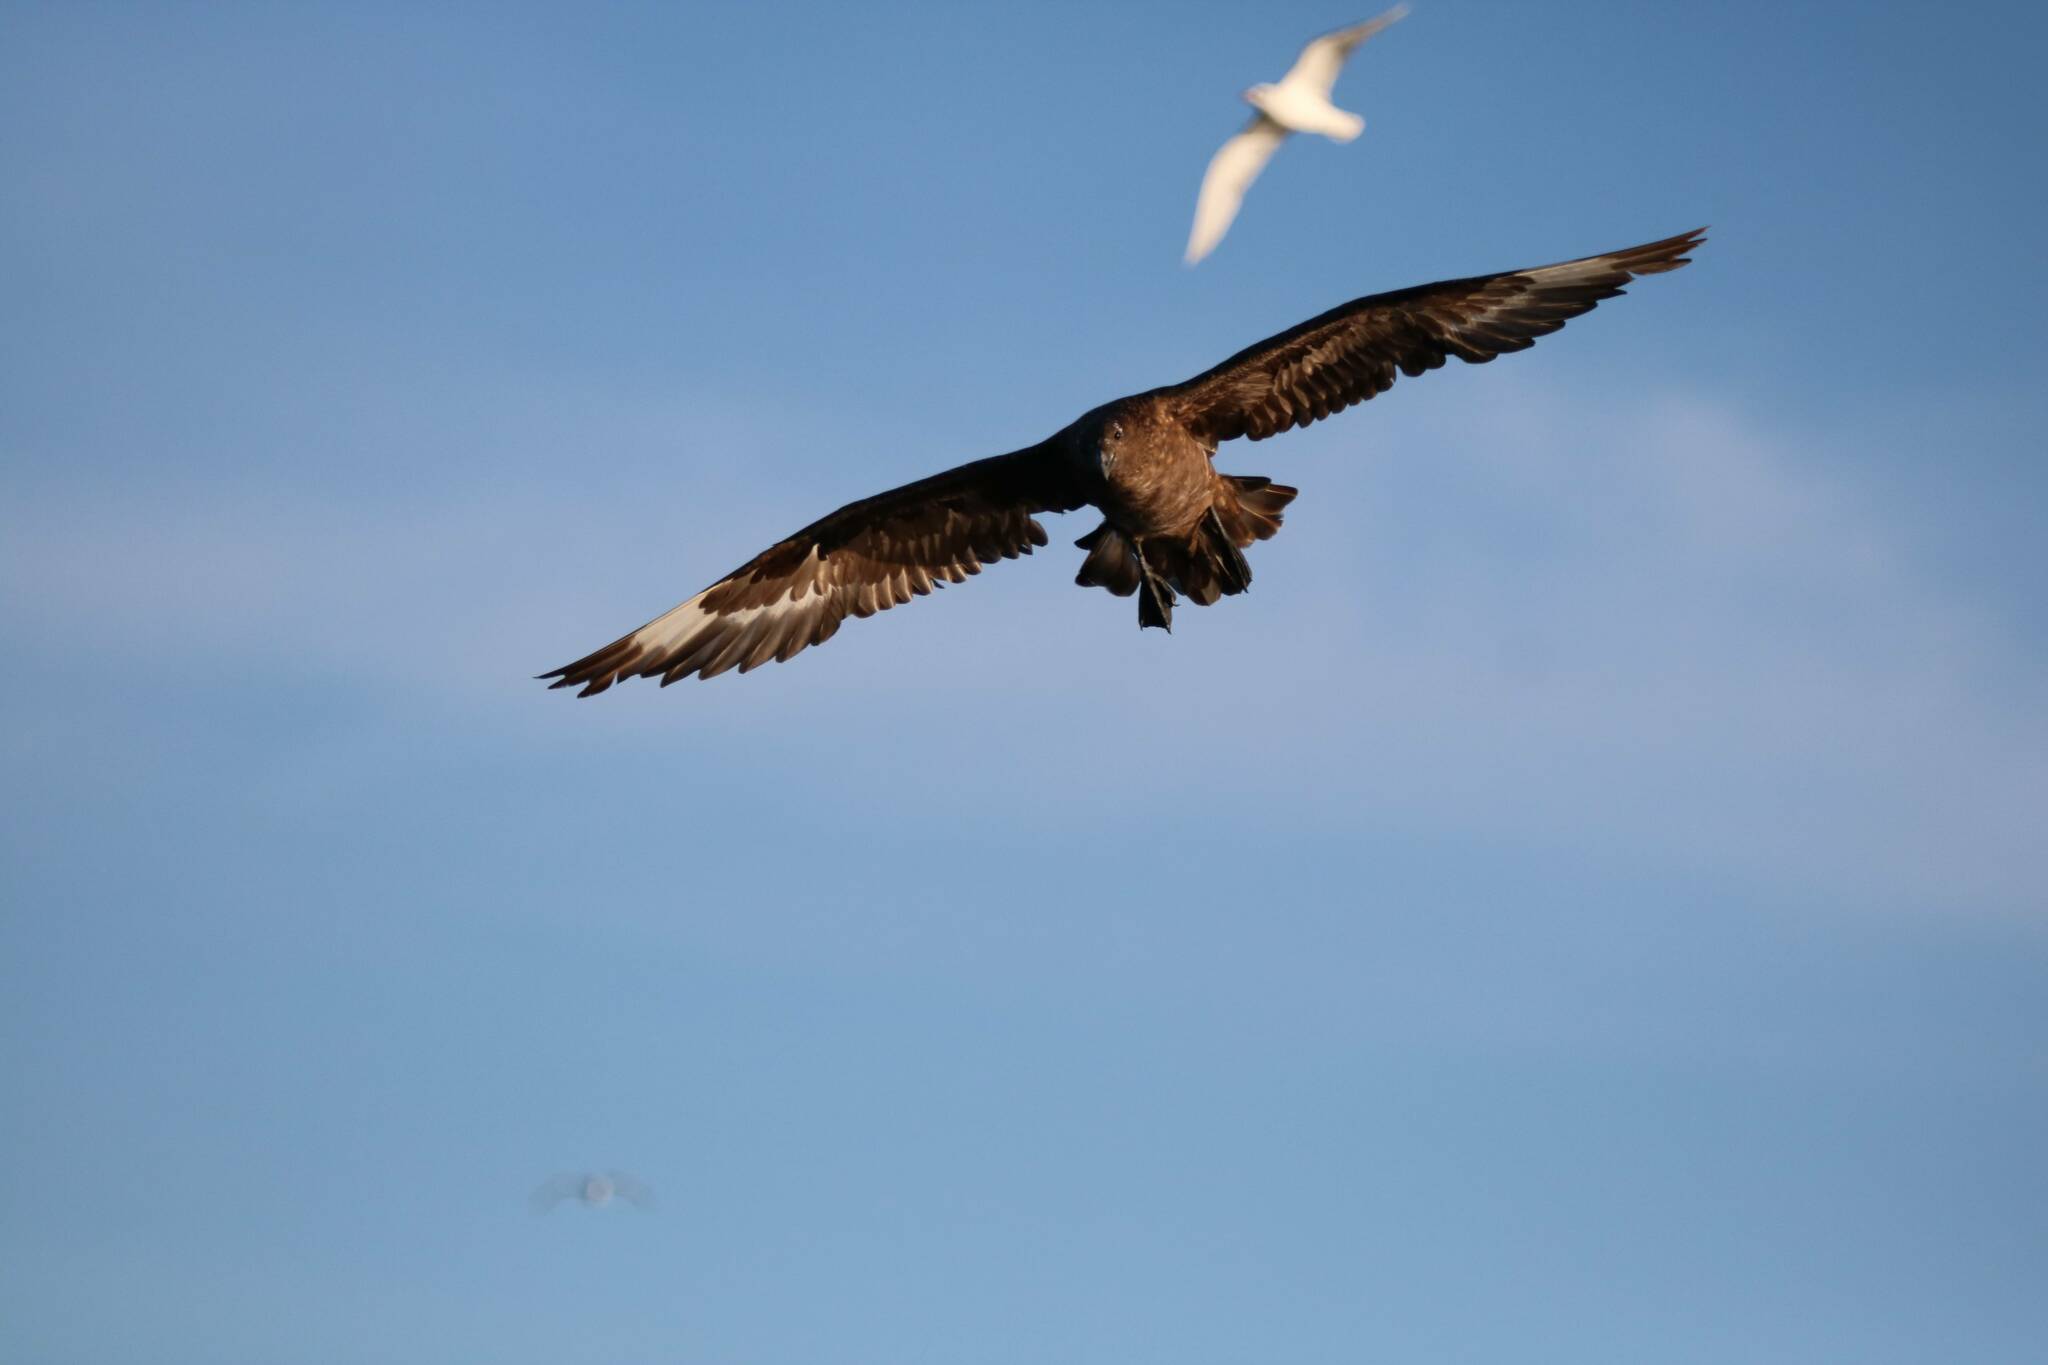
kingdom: Animalia
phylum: Chordata
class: Aves
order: Charadriiformes
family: Stercorariidae
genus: Stercorarius
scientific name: Stercorarius skua
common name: Great skua
